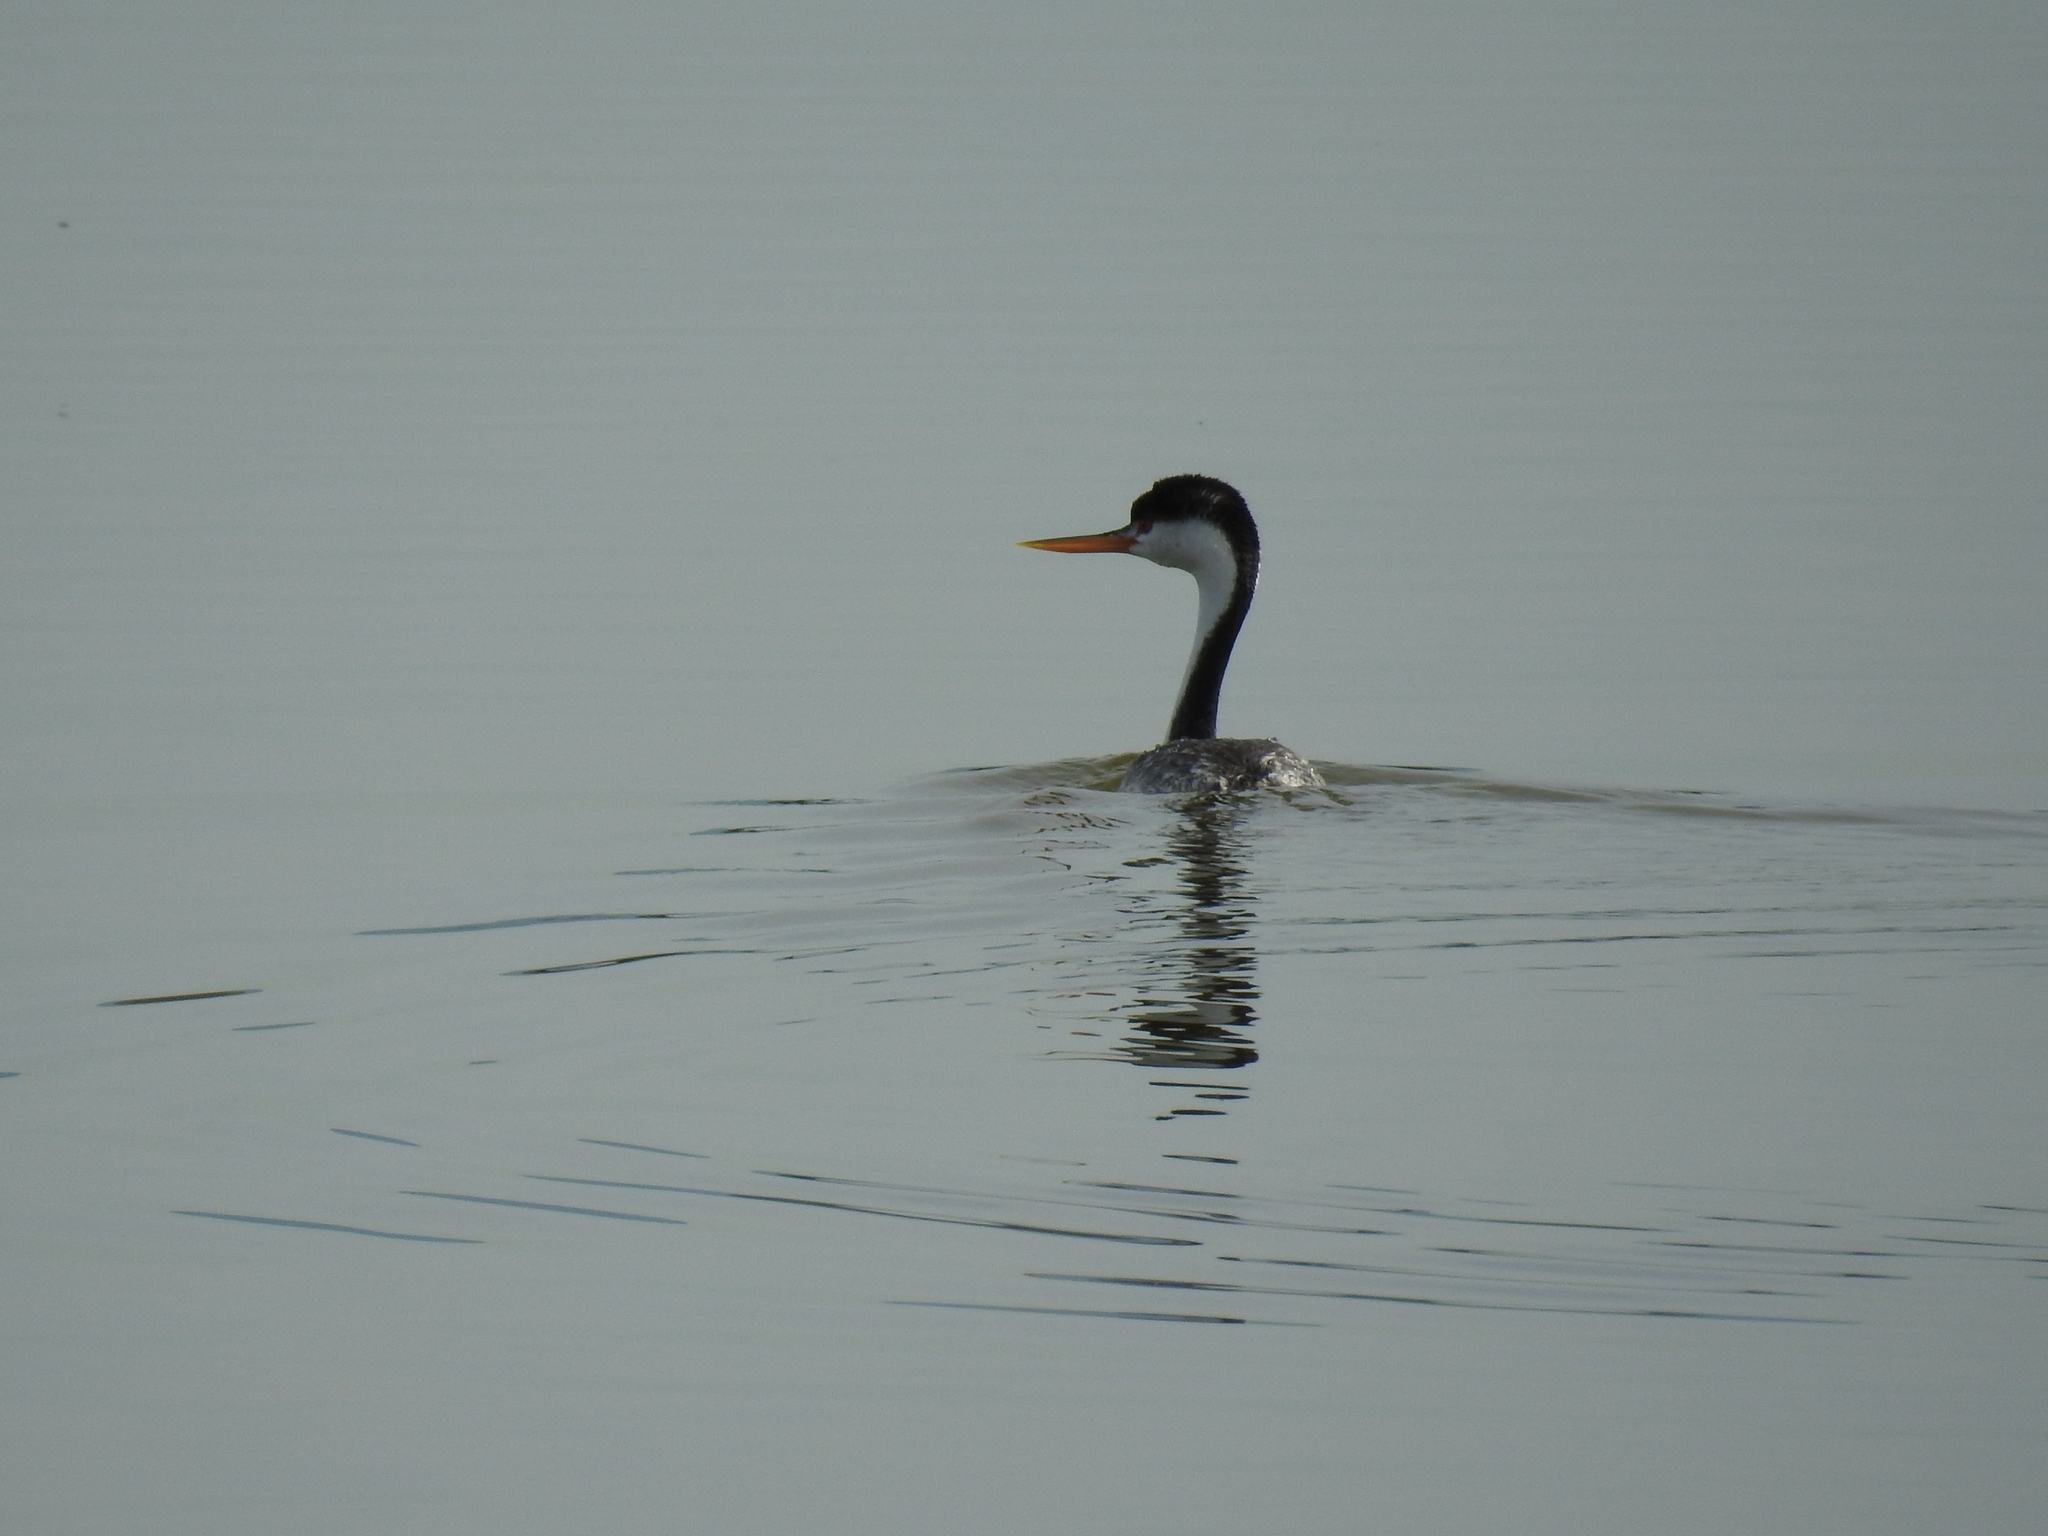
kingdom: Animalia
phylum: Chordata
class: Aves
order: Podicipediformes
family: Podicipedidae
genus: Aechmophorus
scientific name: Aechmophorus clarkii
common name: Clark's grebe
